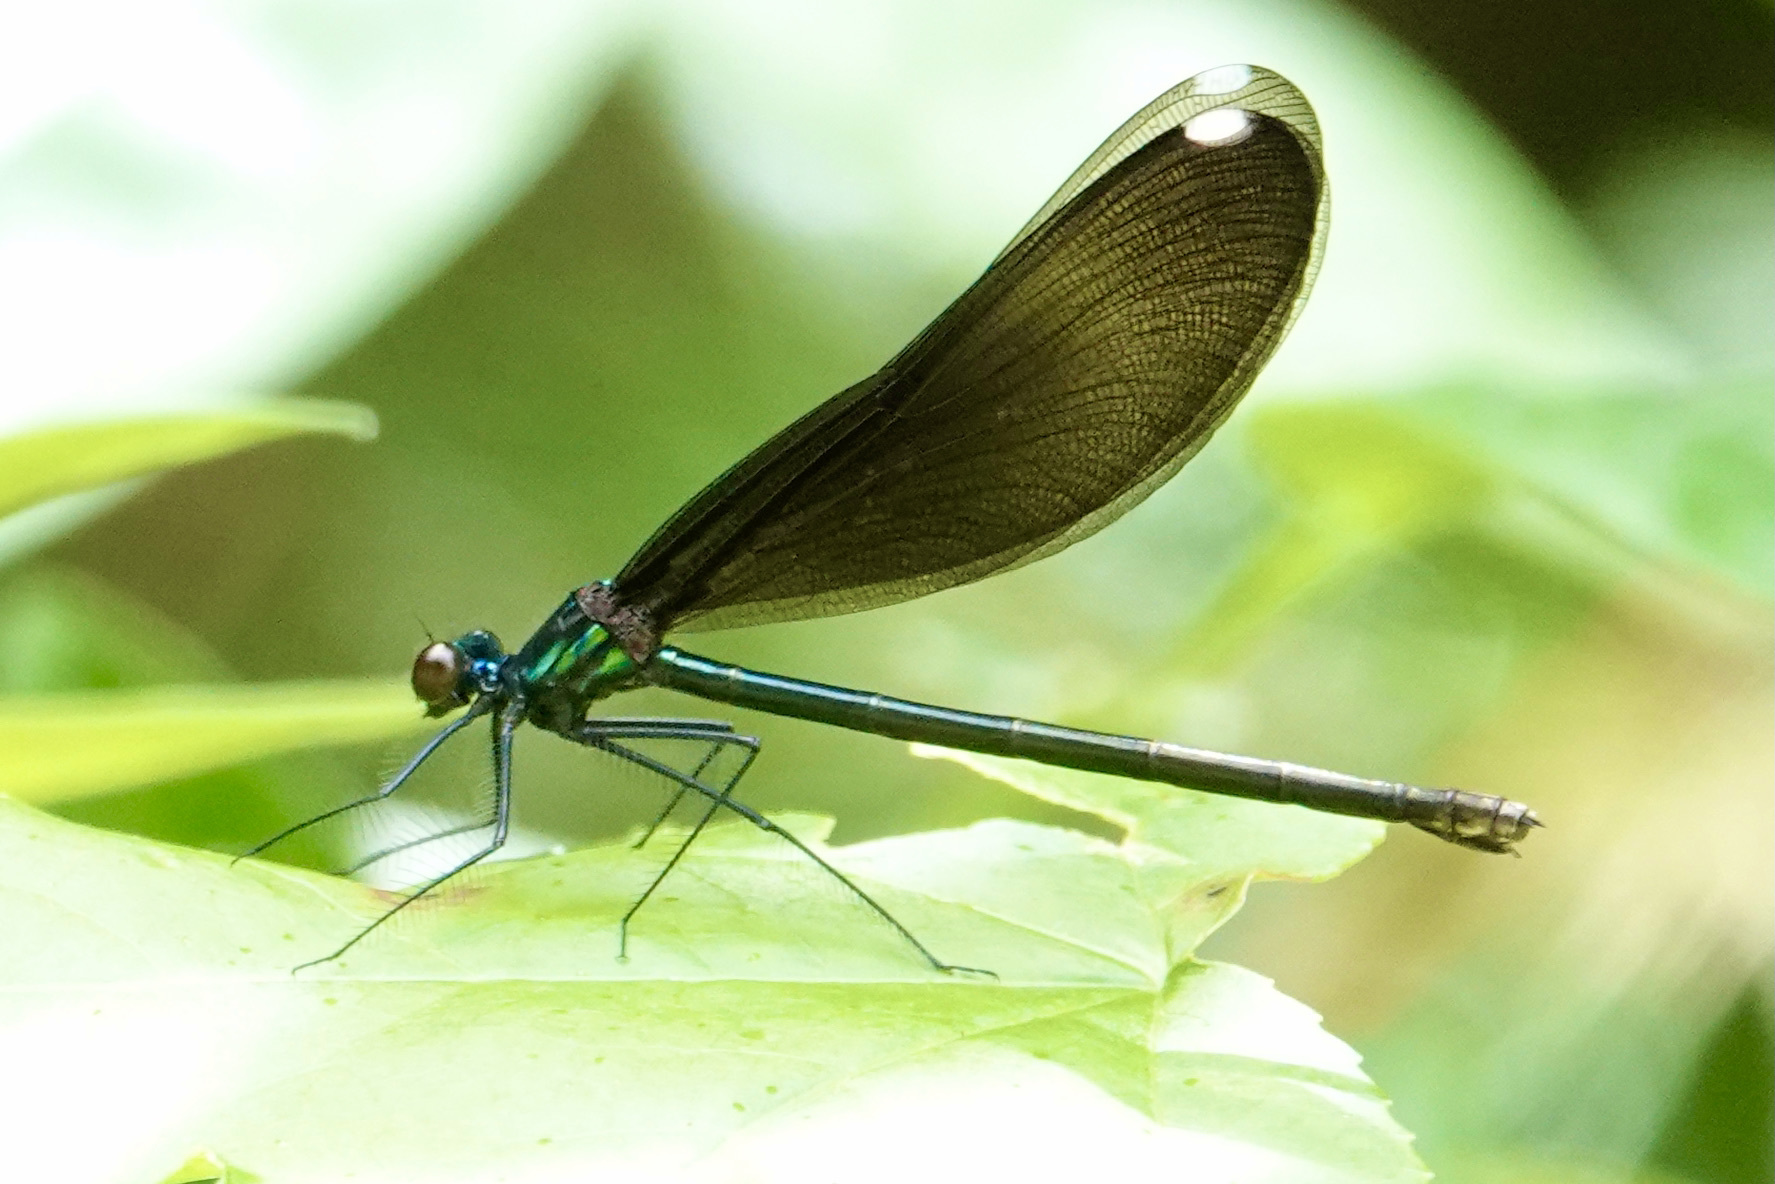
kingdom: Animalia
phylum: Arthropoda
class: Insecta
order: Odonata
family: Calopterygidae
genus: Calopteryx
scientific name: Calopteryx maculata
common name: Ebony jewelwing
